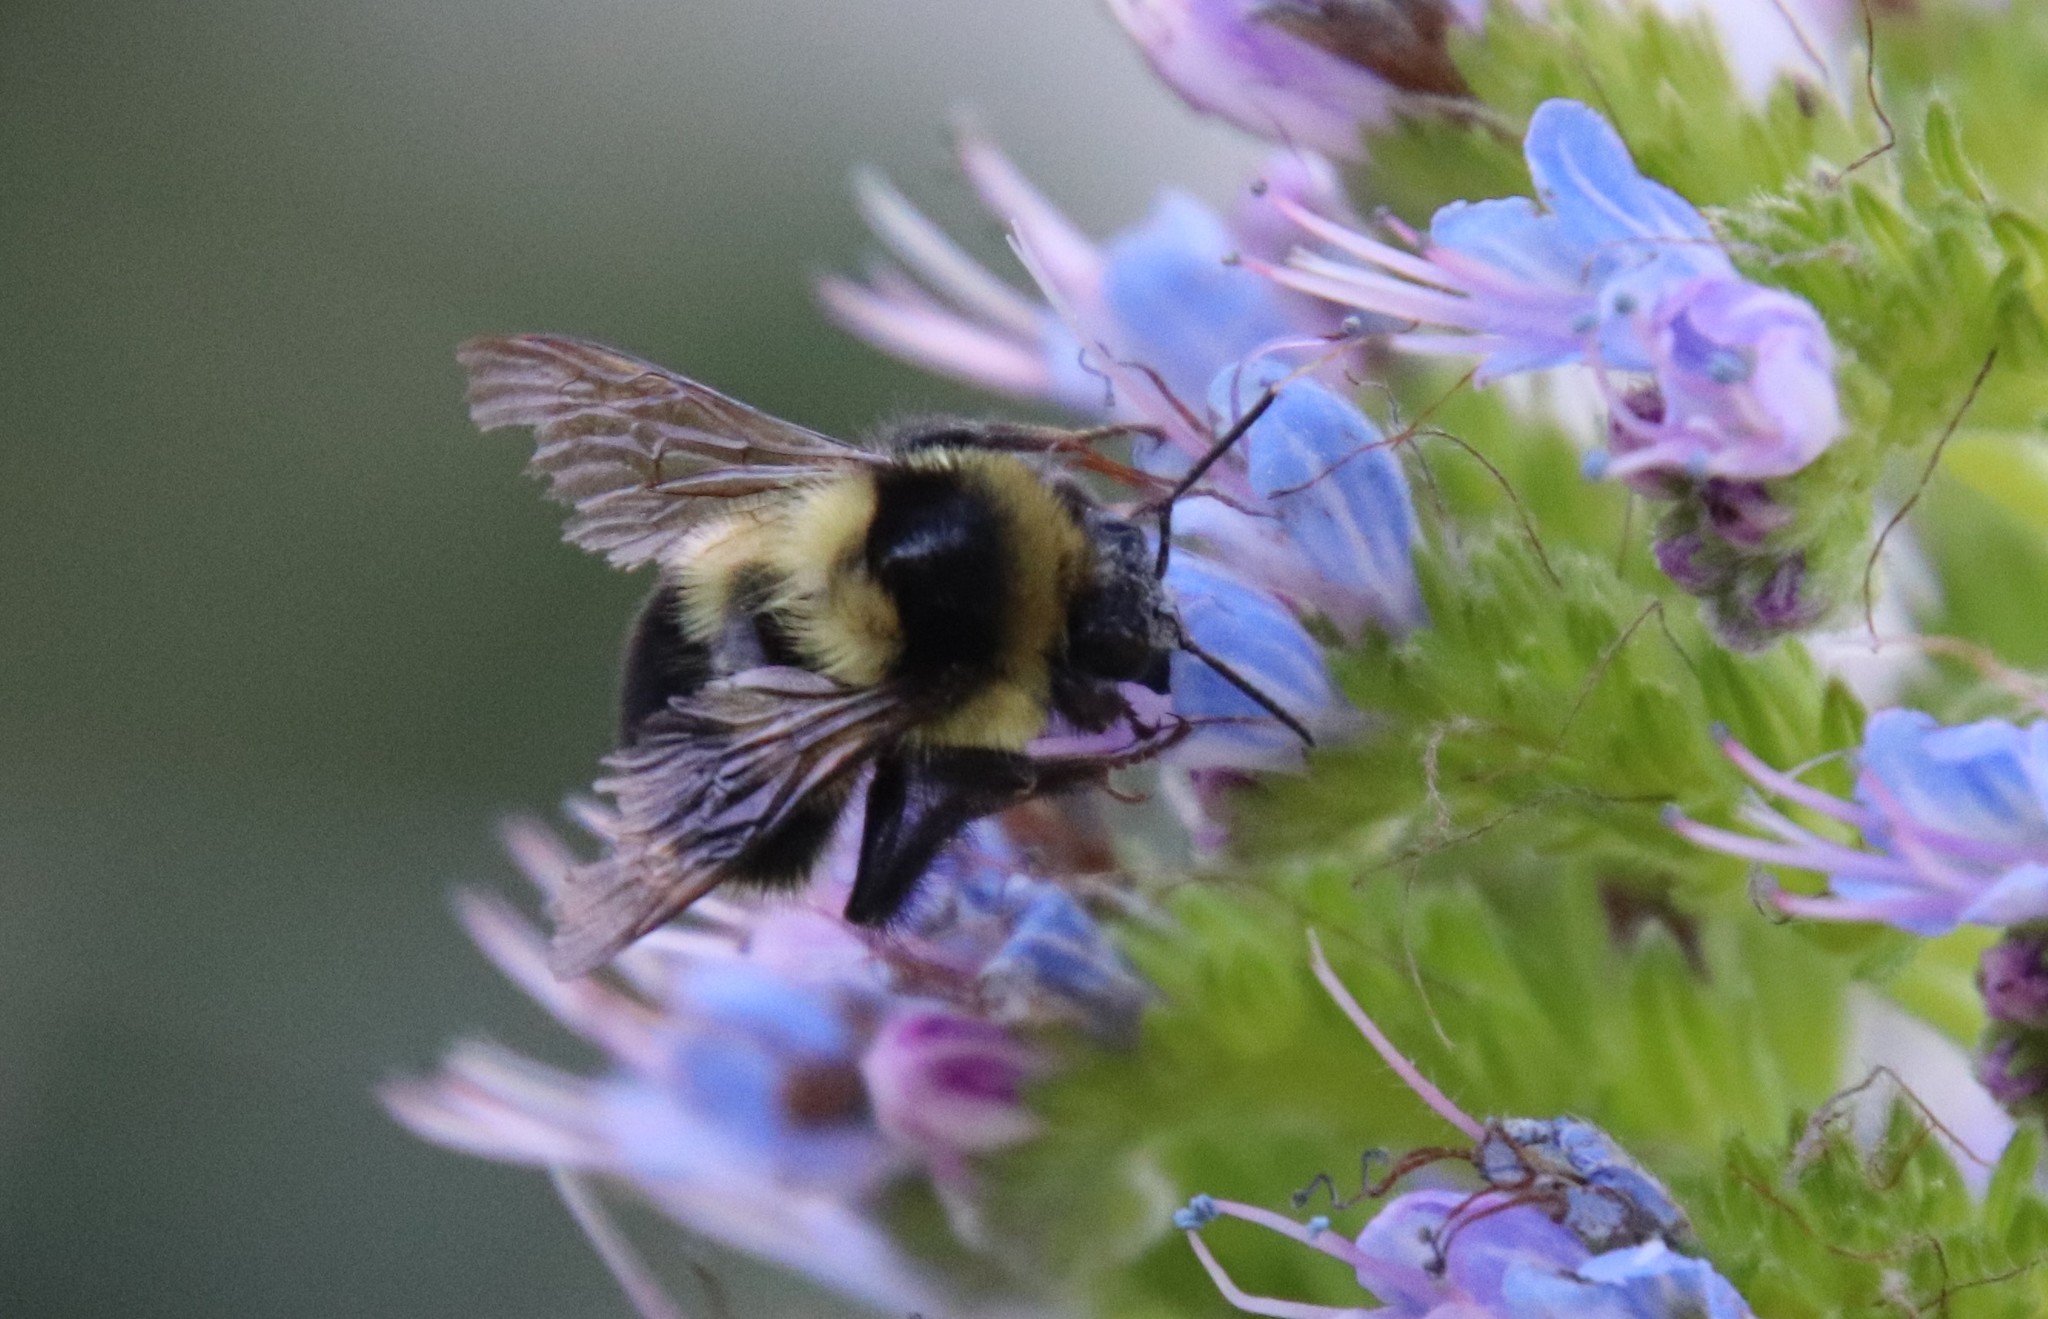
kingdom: Animalia
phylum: Arthropoda
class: Insecta
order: Hymenoptera
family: Apidae
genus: Bombus
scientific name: Bombus melanopygus
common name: Black tail bumble bee
